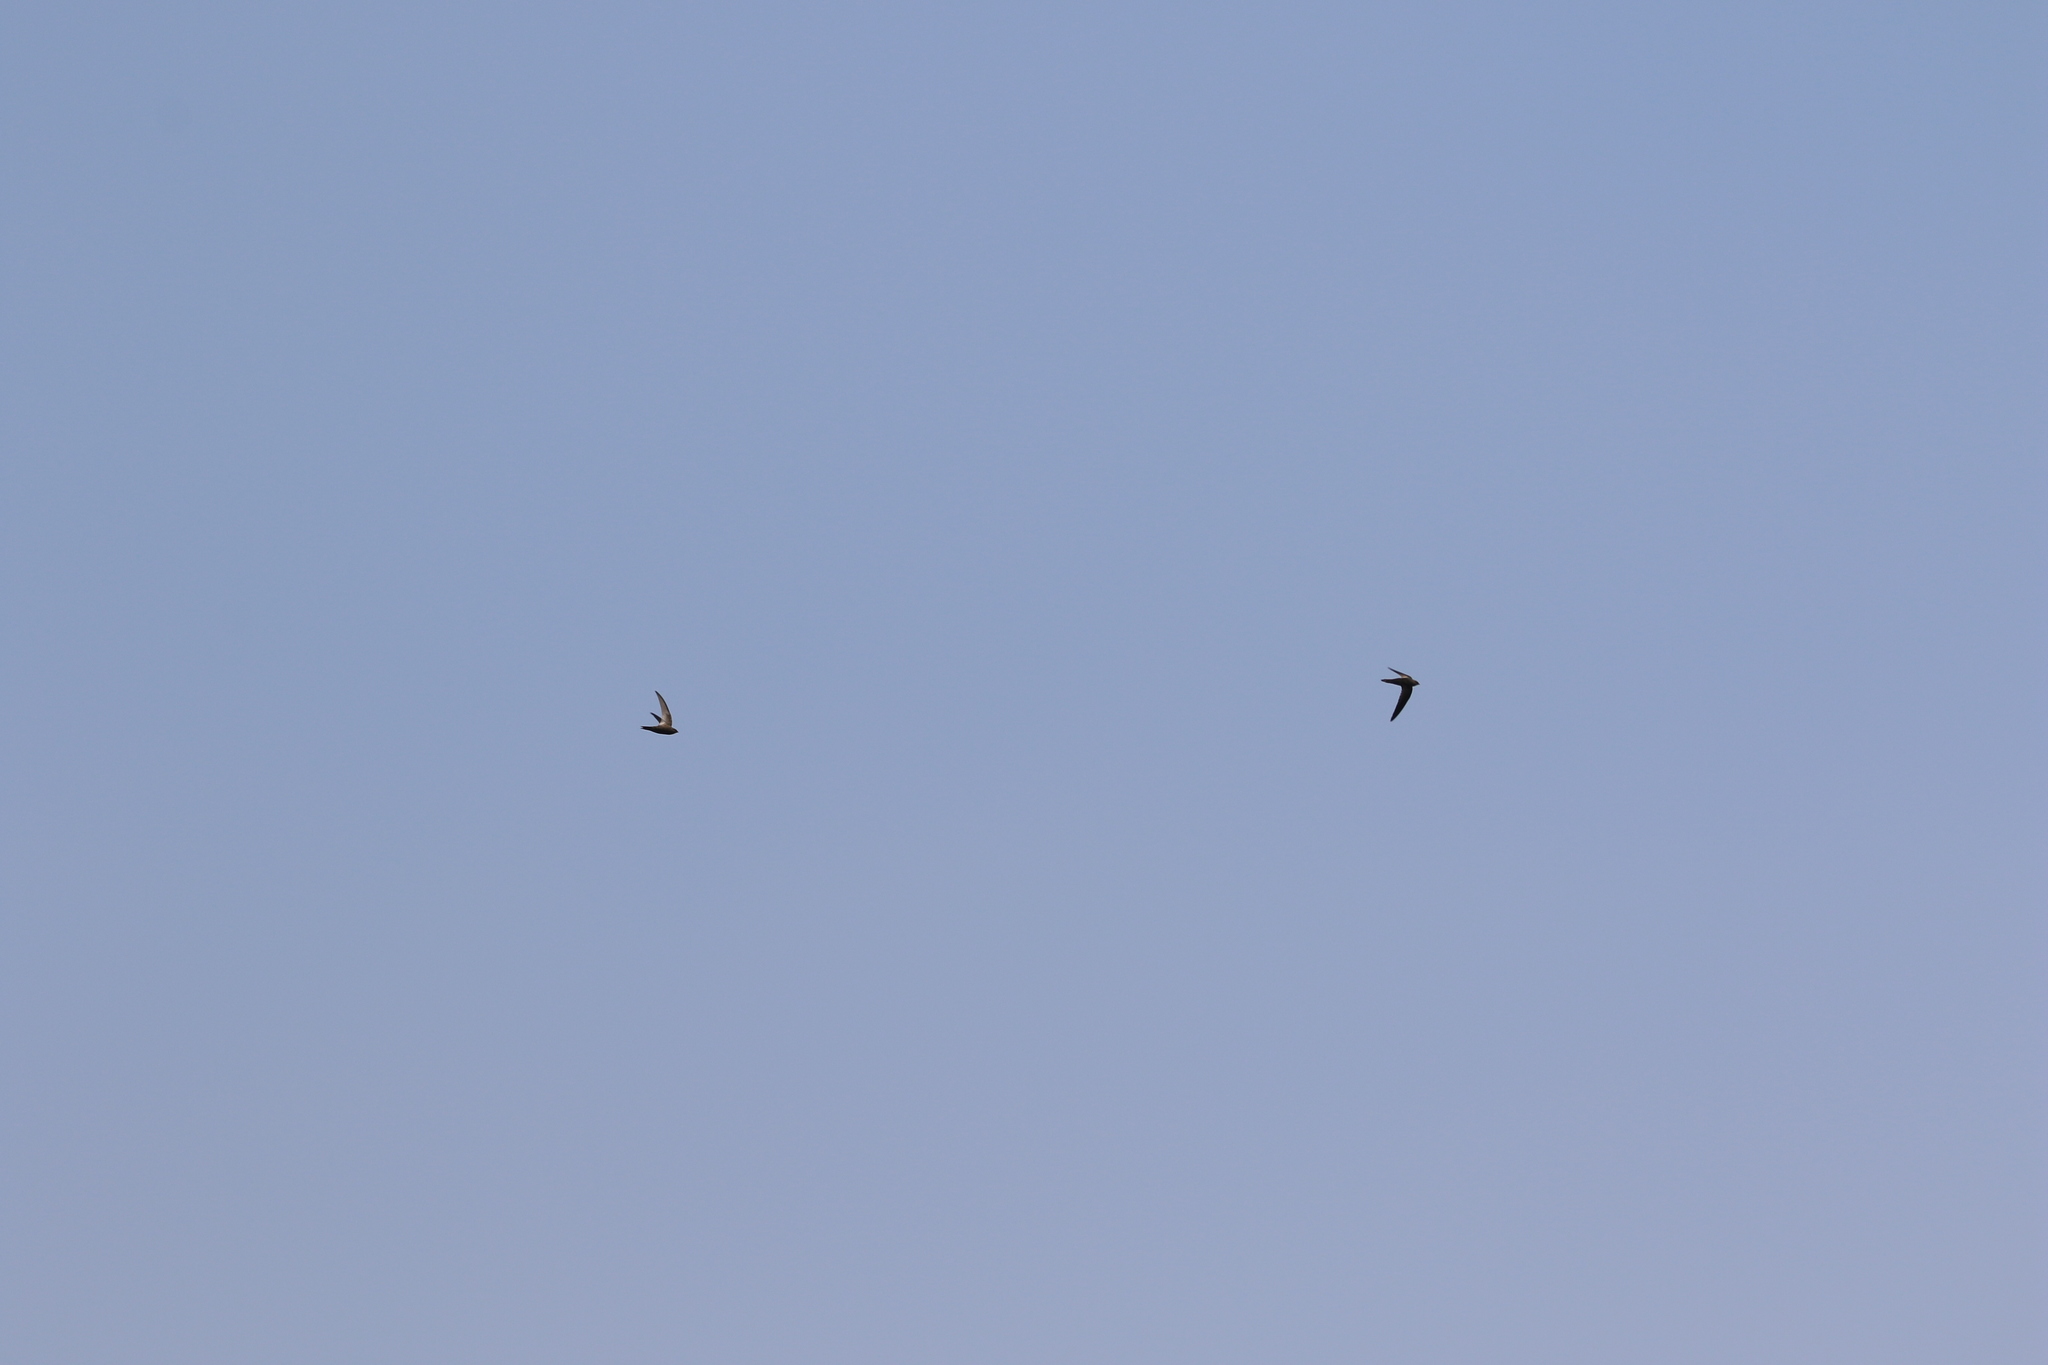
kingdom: Animalia
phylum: Chordata
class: Aves
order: Apodiformes
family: Apodidae
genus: Apus
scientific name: Apus balstoni
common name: Malagasy black swift
